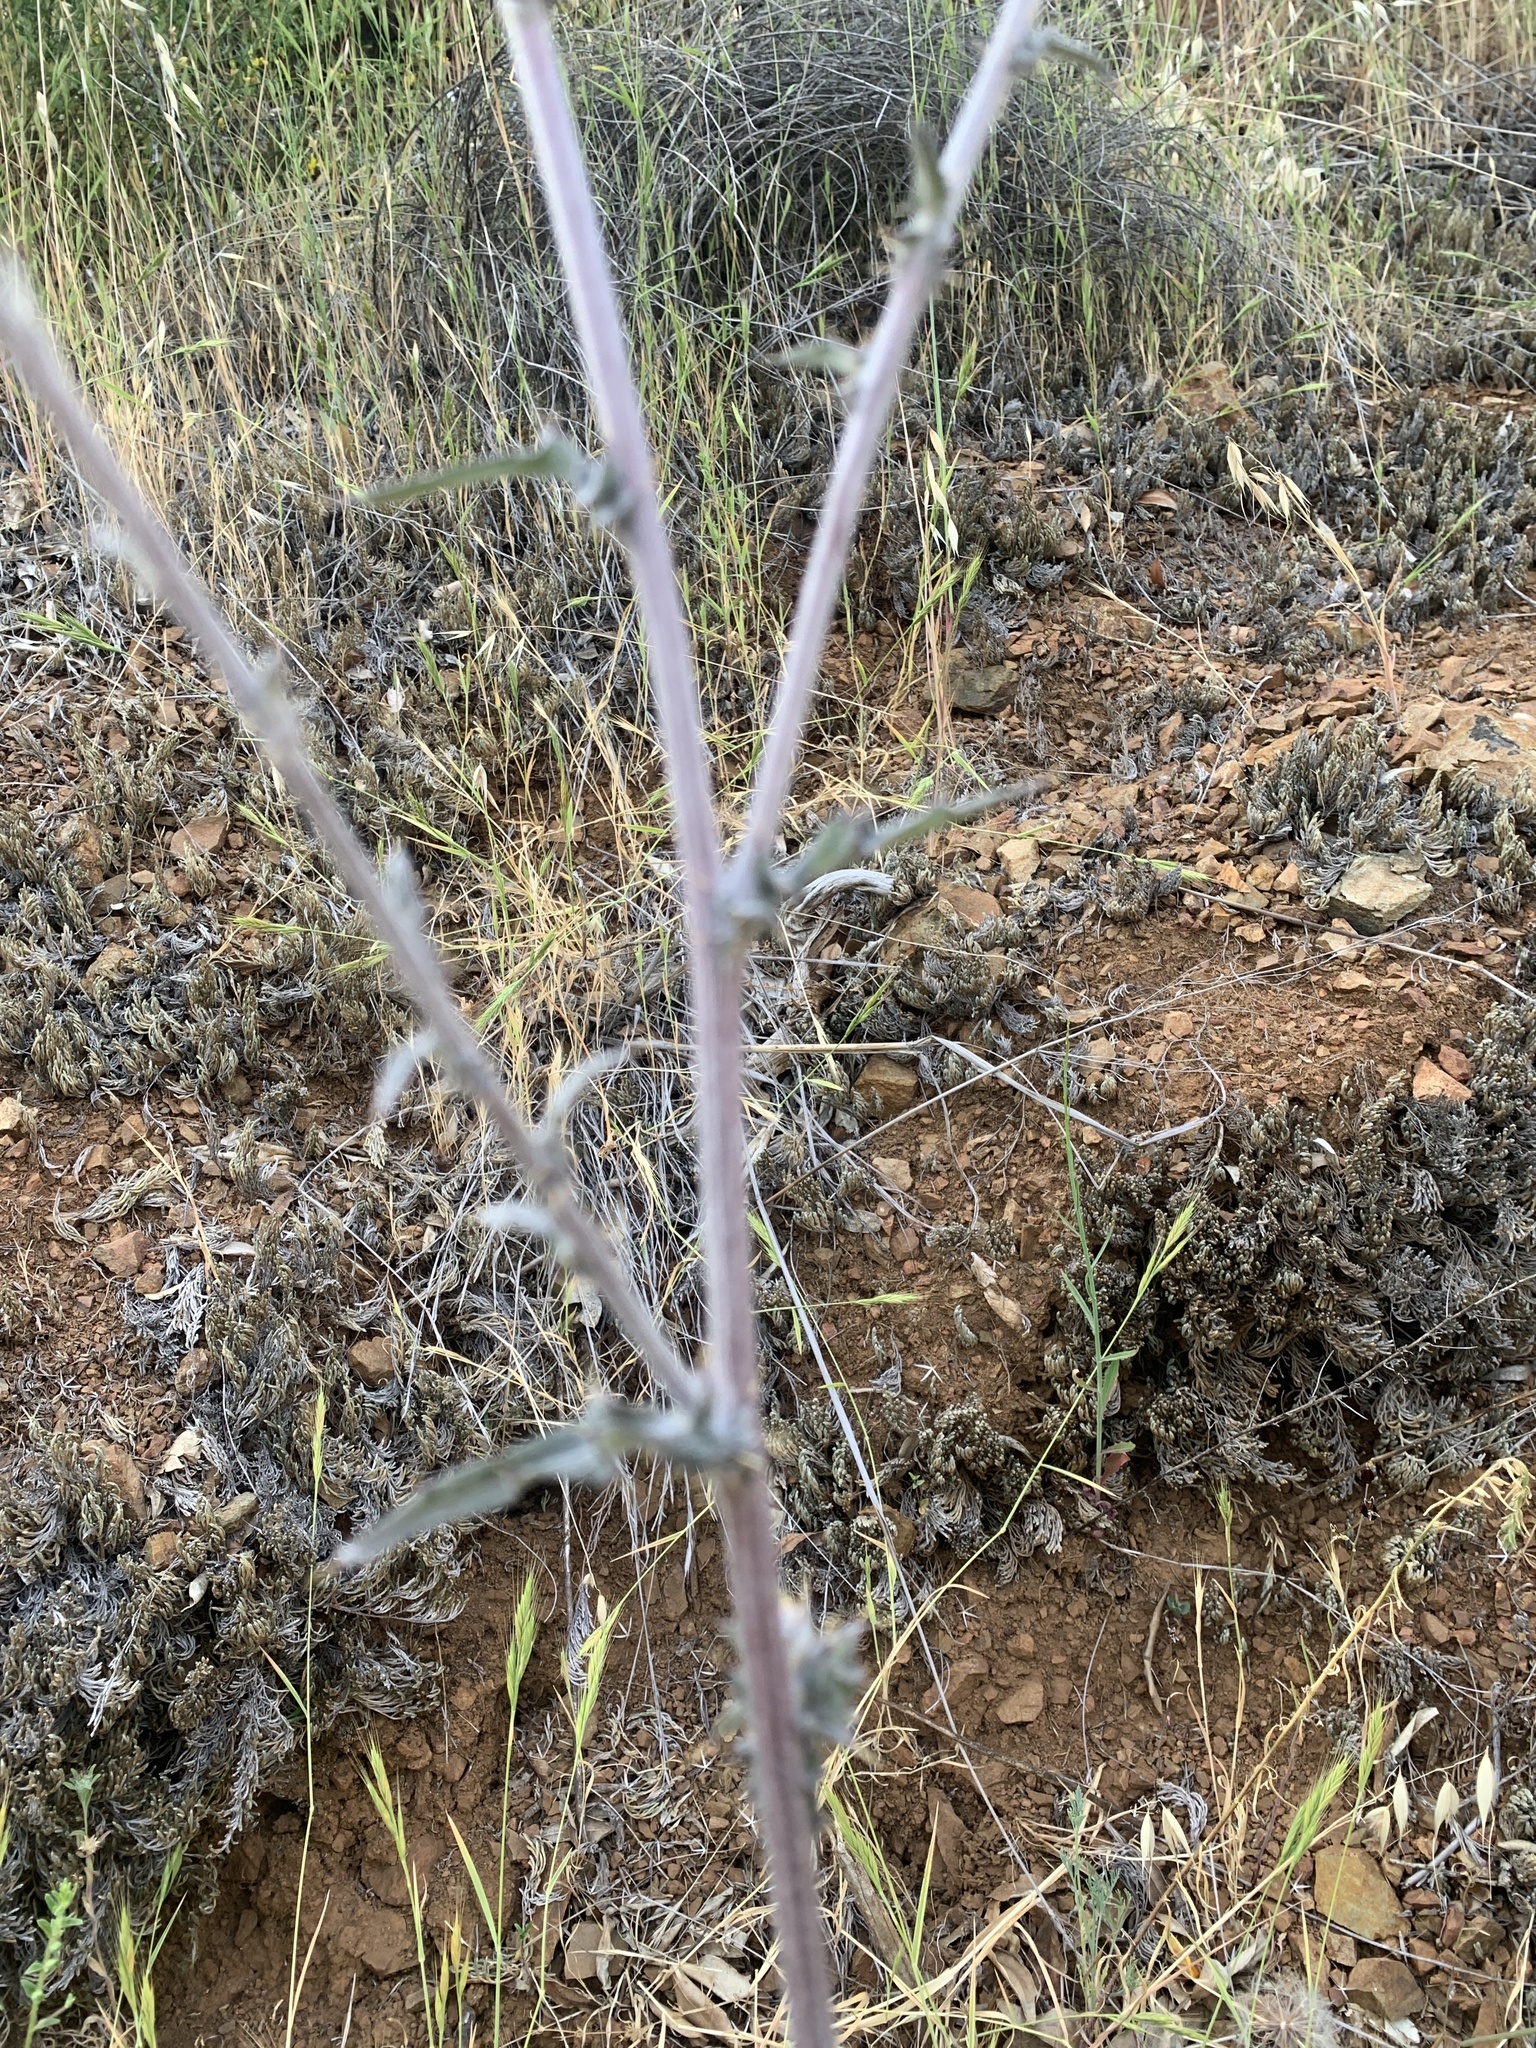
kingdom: Plantae
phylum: Tracheophyta
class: Magnoliopsida
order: Asterales
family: Asteraceae
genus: Cirsium
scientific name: Cirsium occidentale
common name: Western thistle
